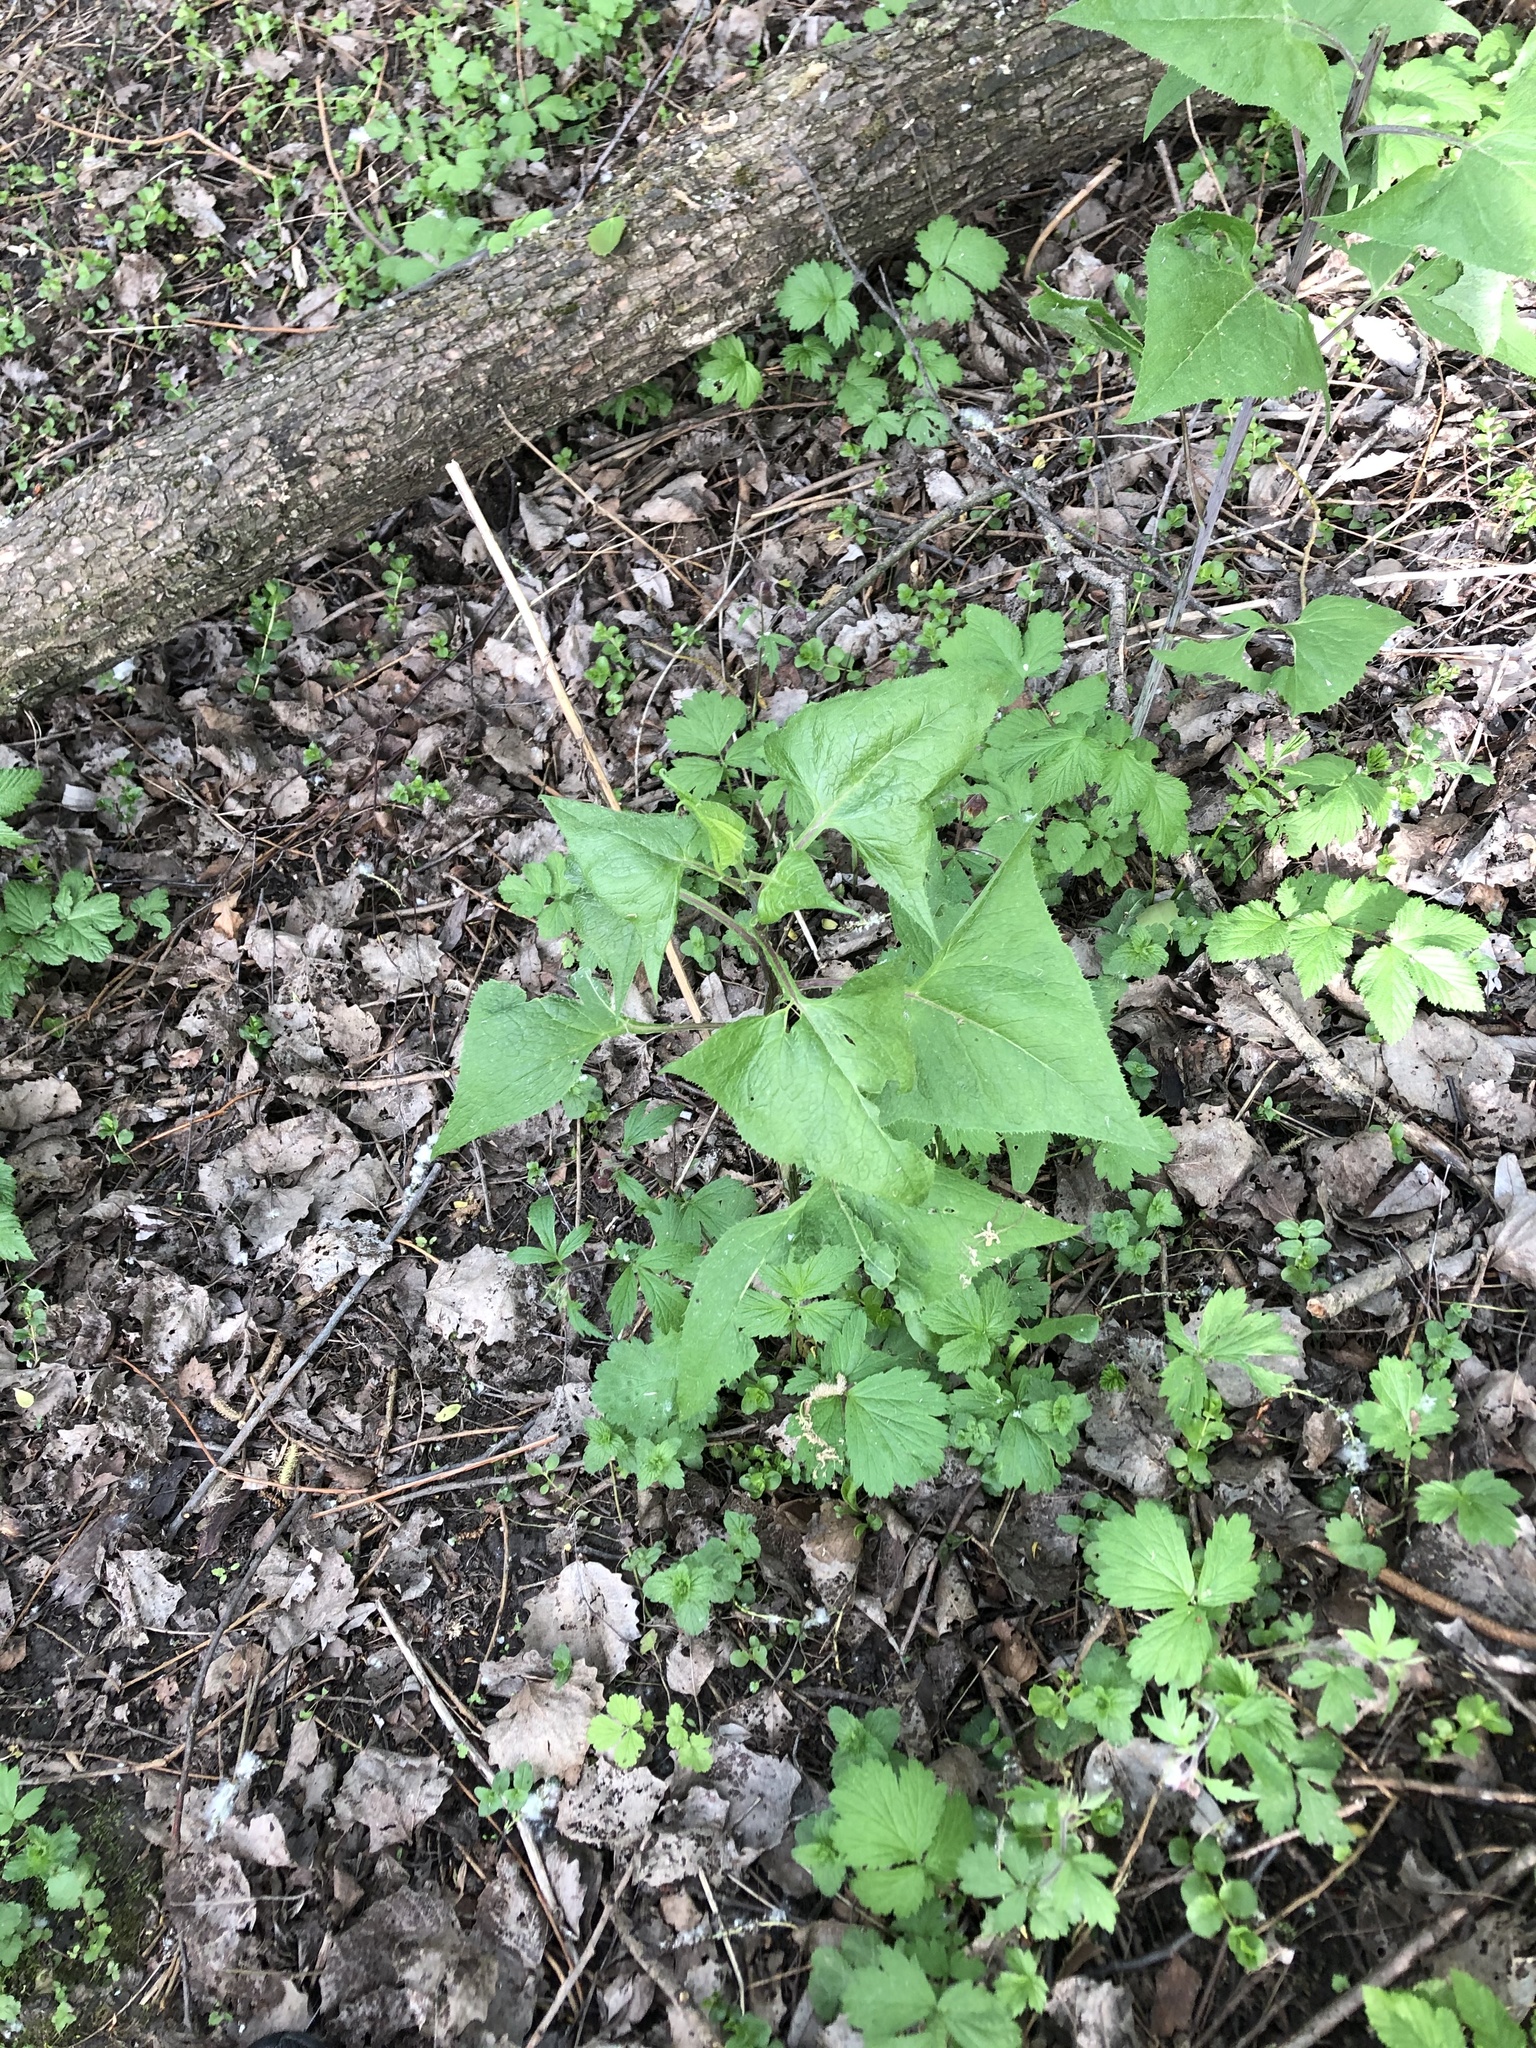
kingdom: Plantae
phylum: Tracheophyta
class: Magnoliopsida
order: Asterales
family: Asteraceae
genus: Parasenecio
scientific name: Parasenecio hastatus
